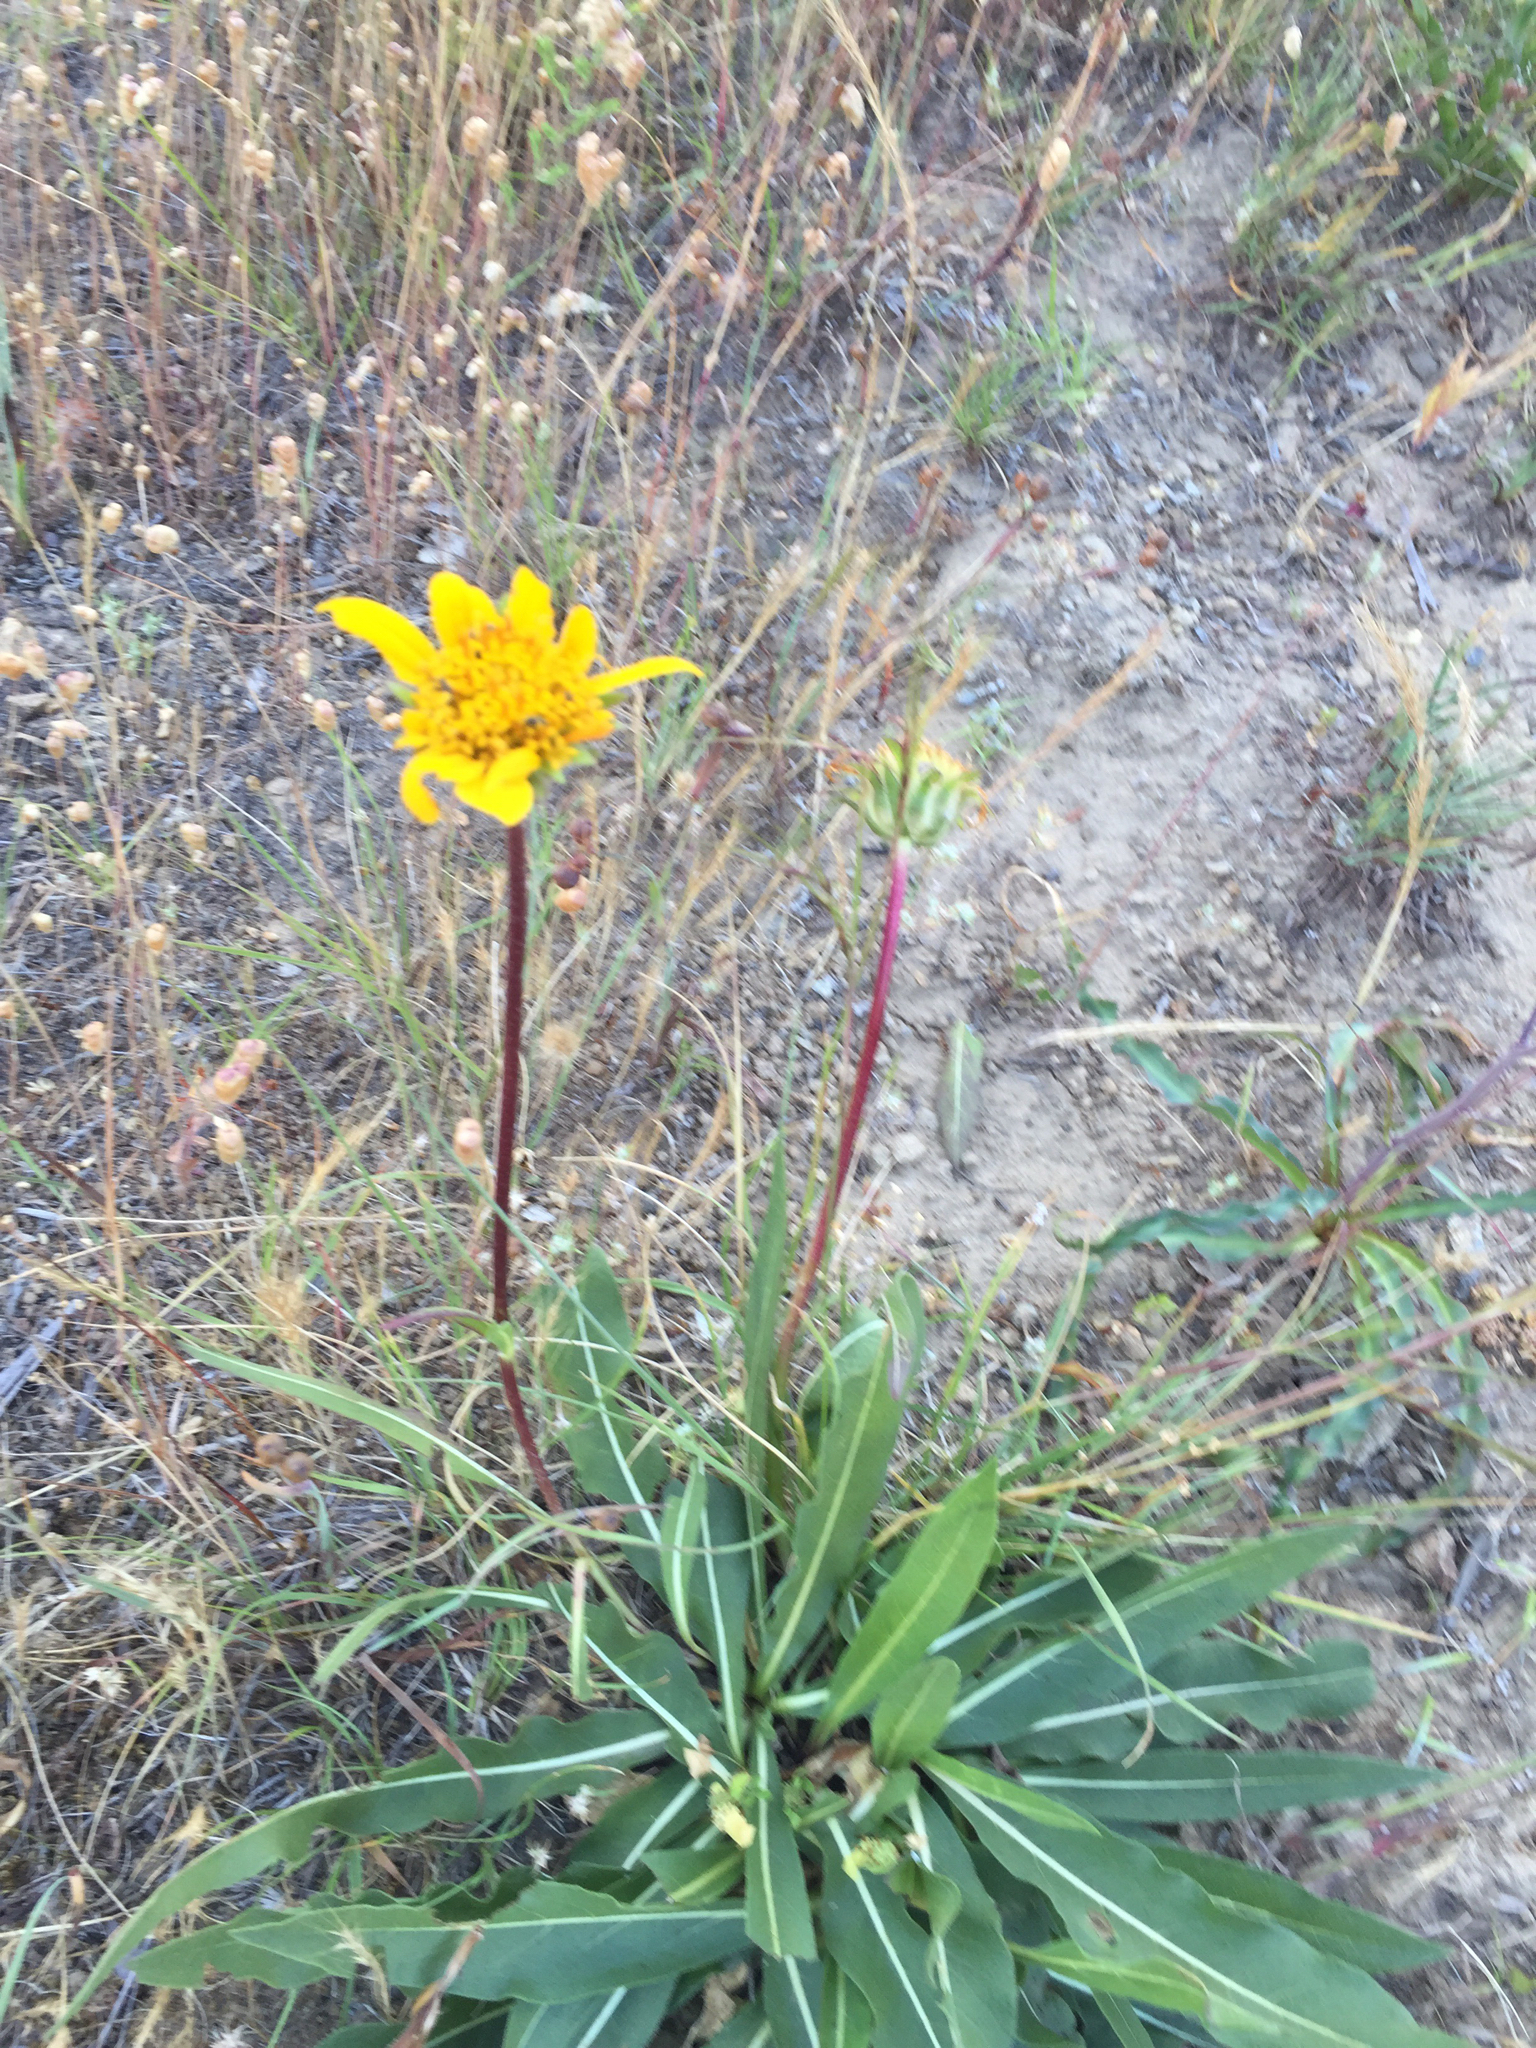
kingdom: Plantae
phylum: Tracheophyta
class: Magnoliopsida
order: Asterales
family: Asteraceae
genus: Wyethia
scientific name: Wyethia angustifolia
